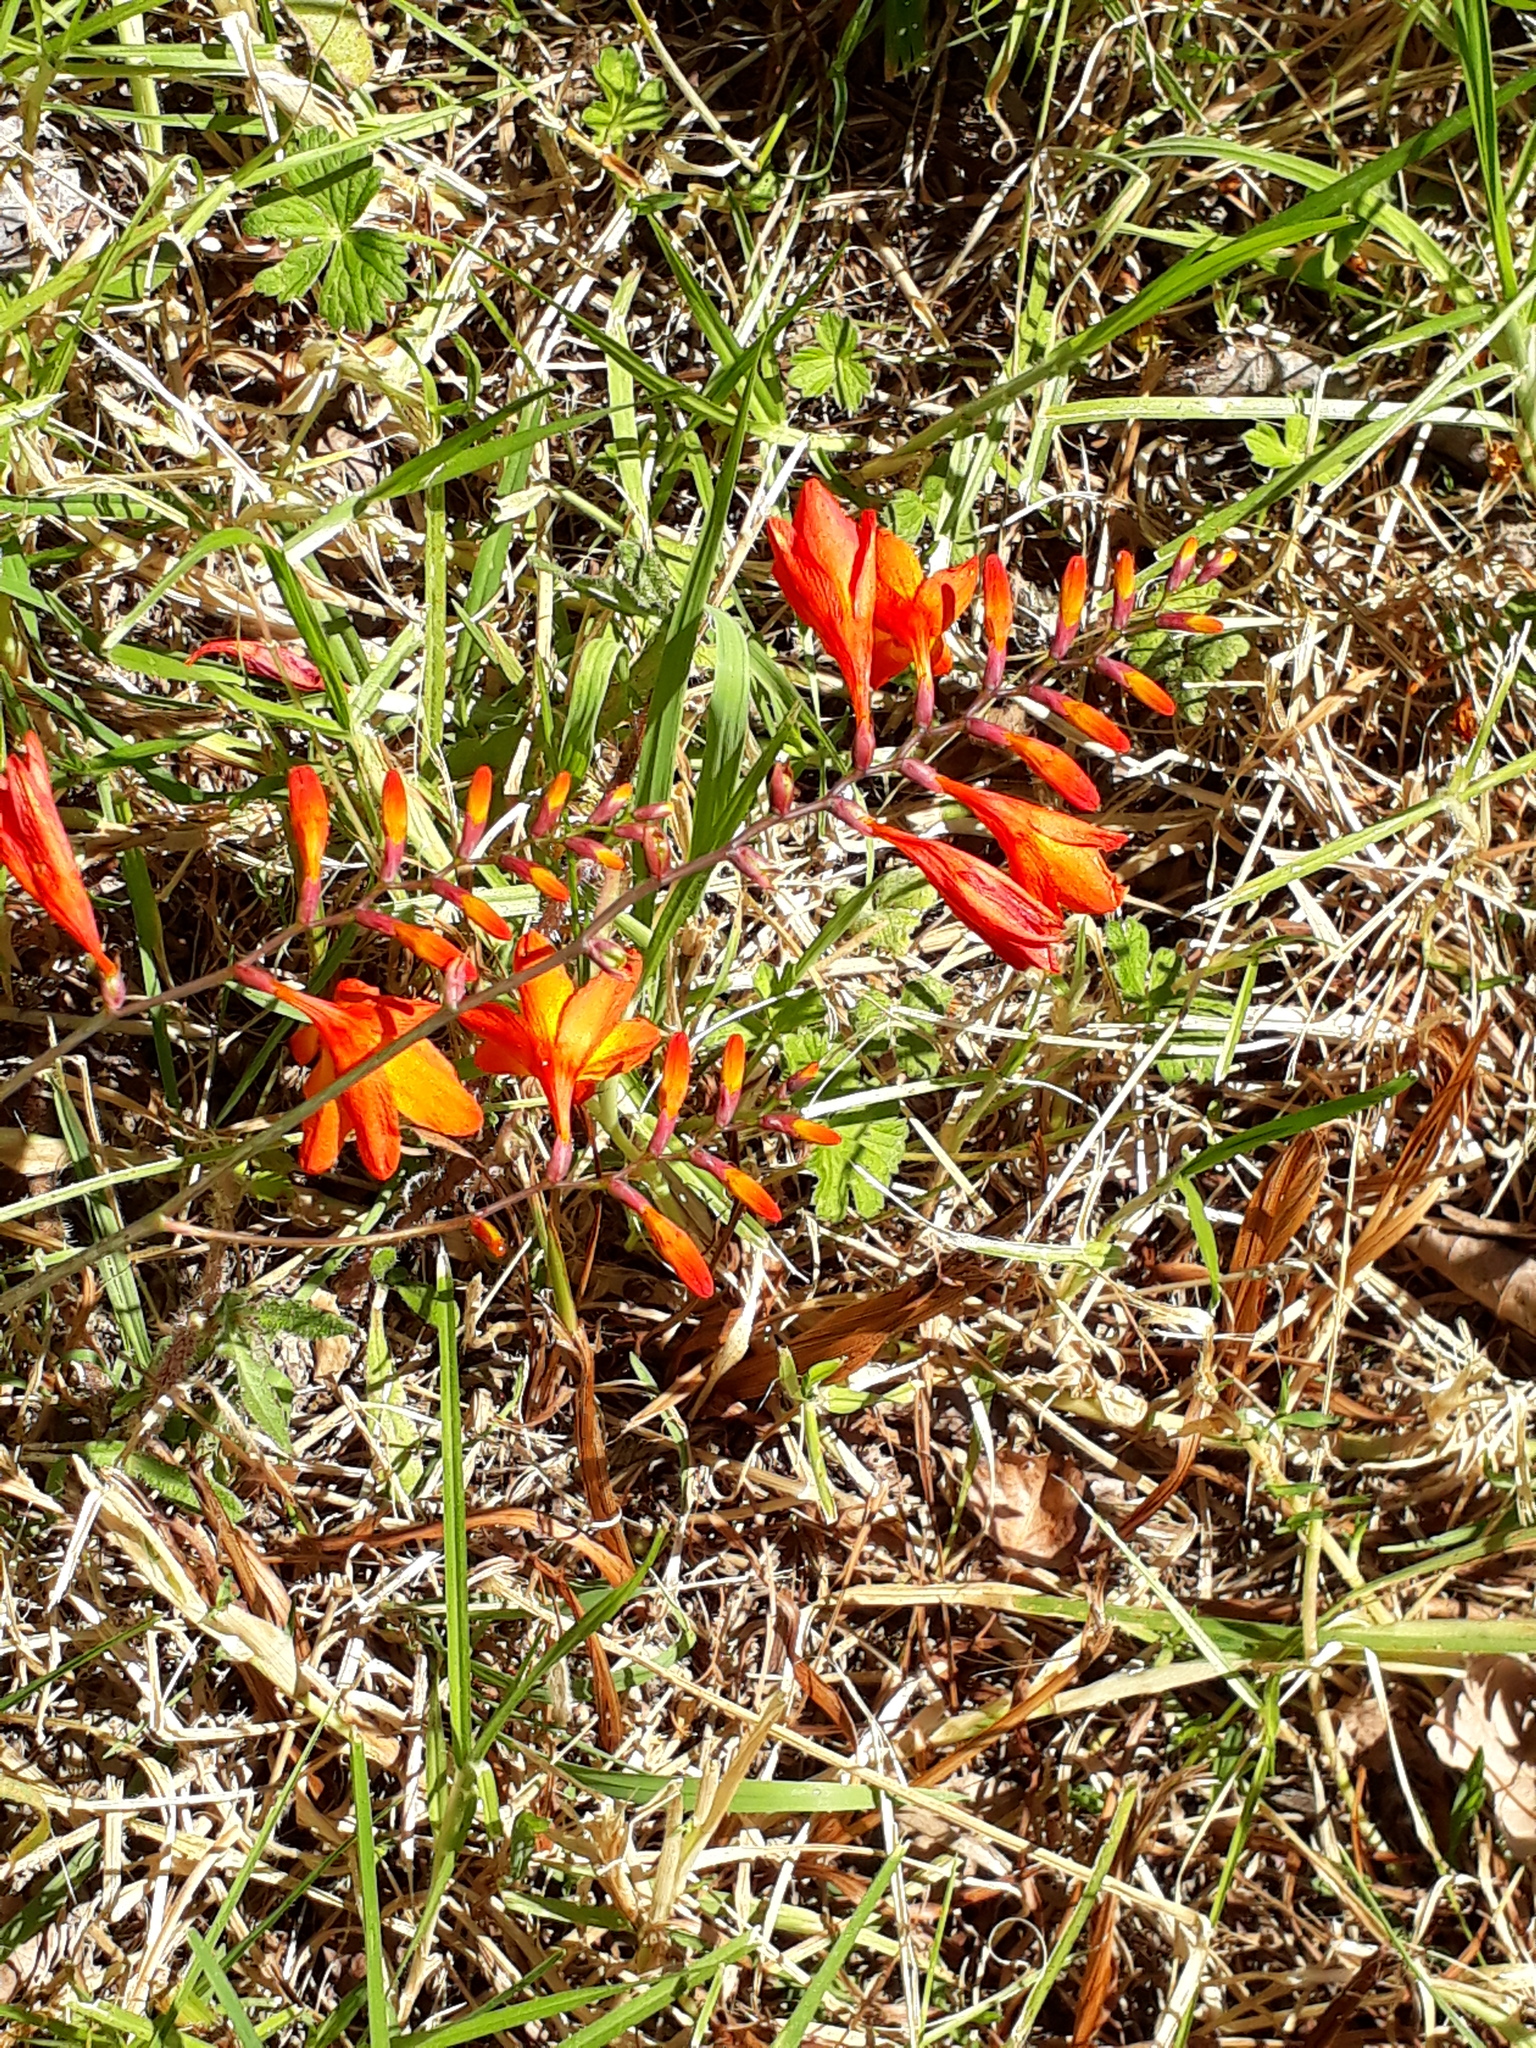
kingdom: Plantae
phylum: Tracheophyta
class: Liliopsida
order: Asparagales
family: Iridaceae
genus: Crocosmia
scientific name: Crocosmia crocosmiiflora
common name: Montbretia
